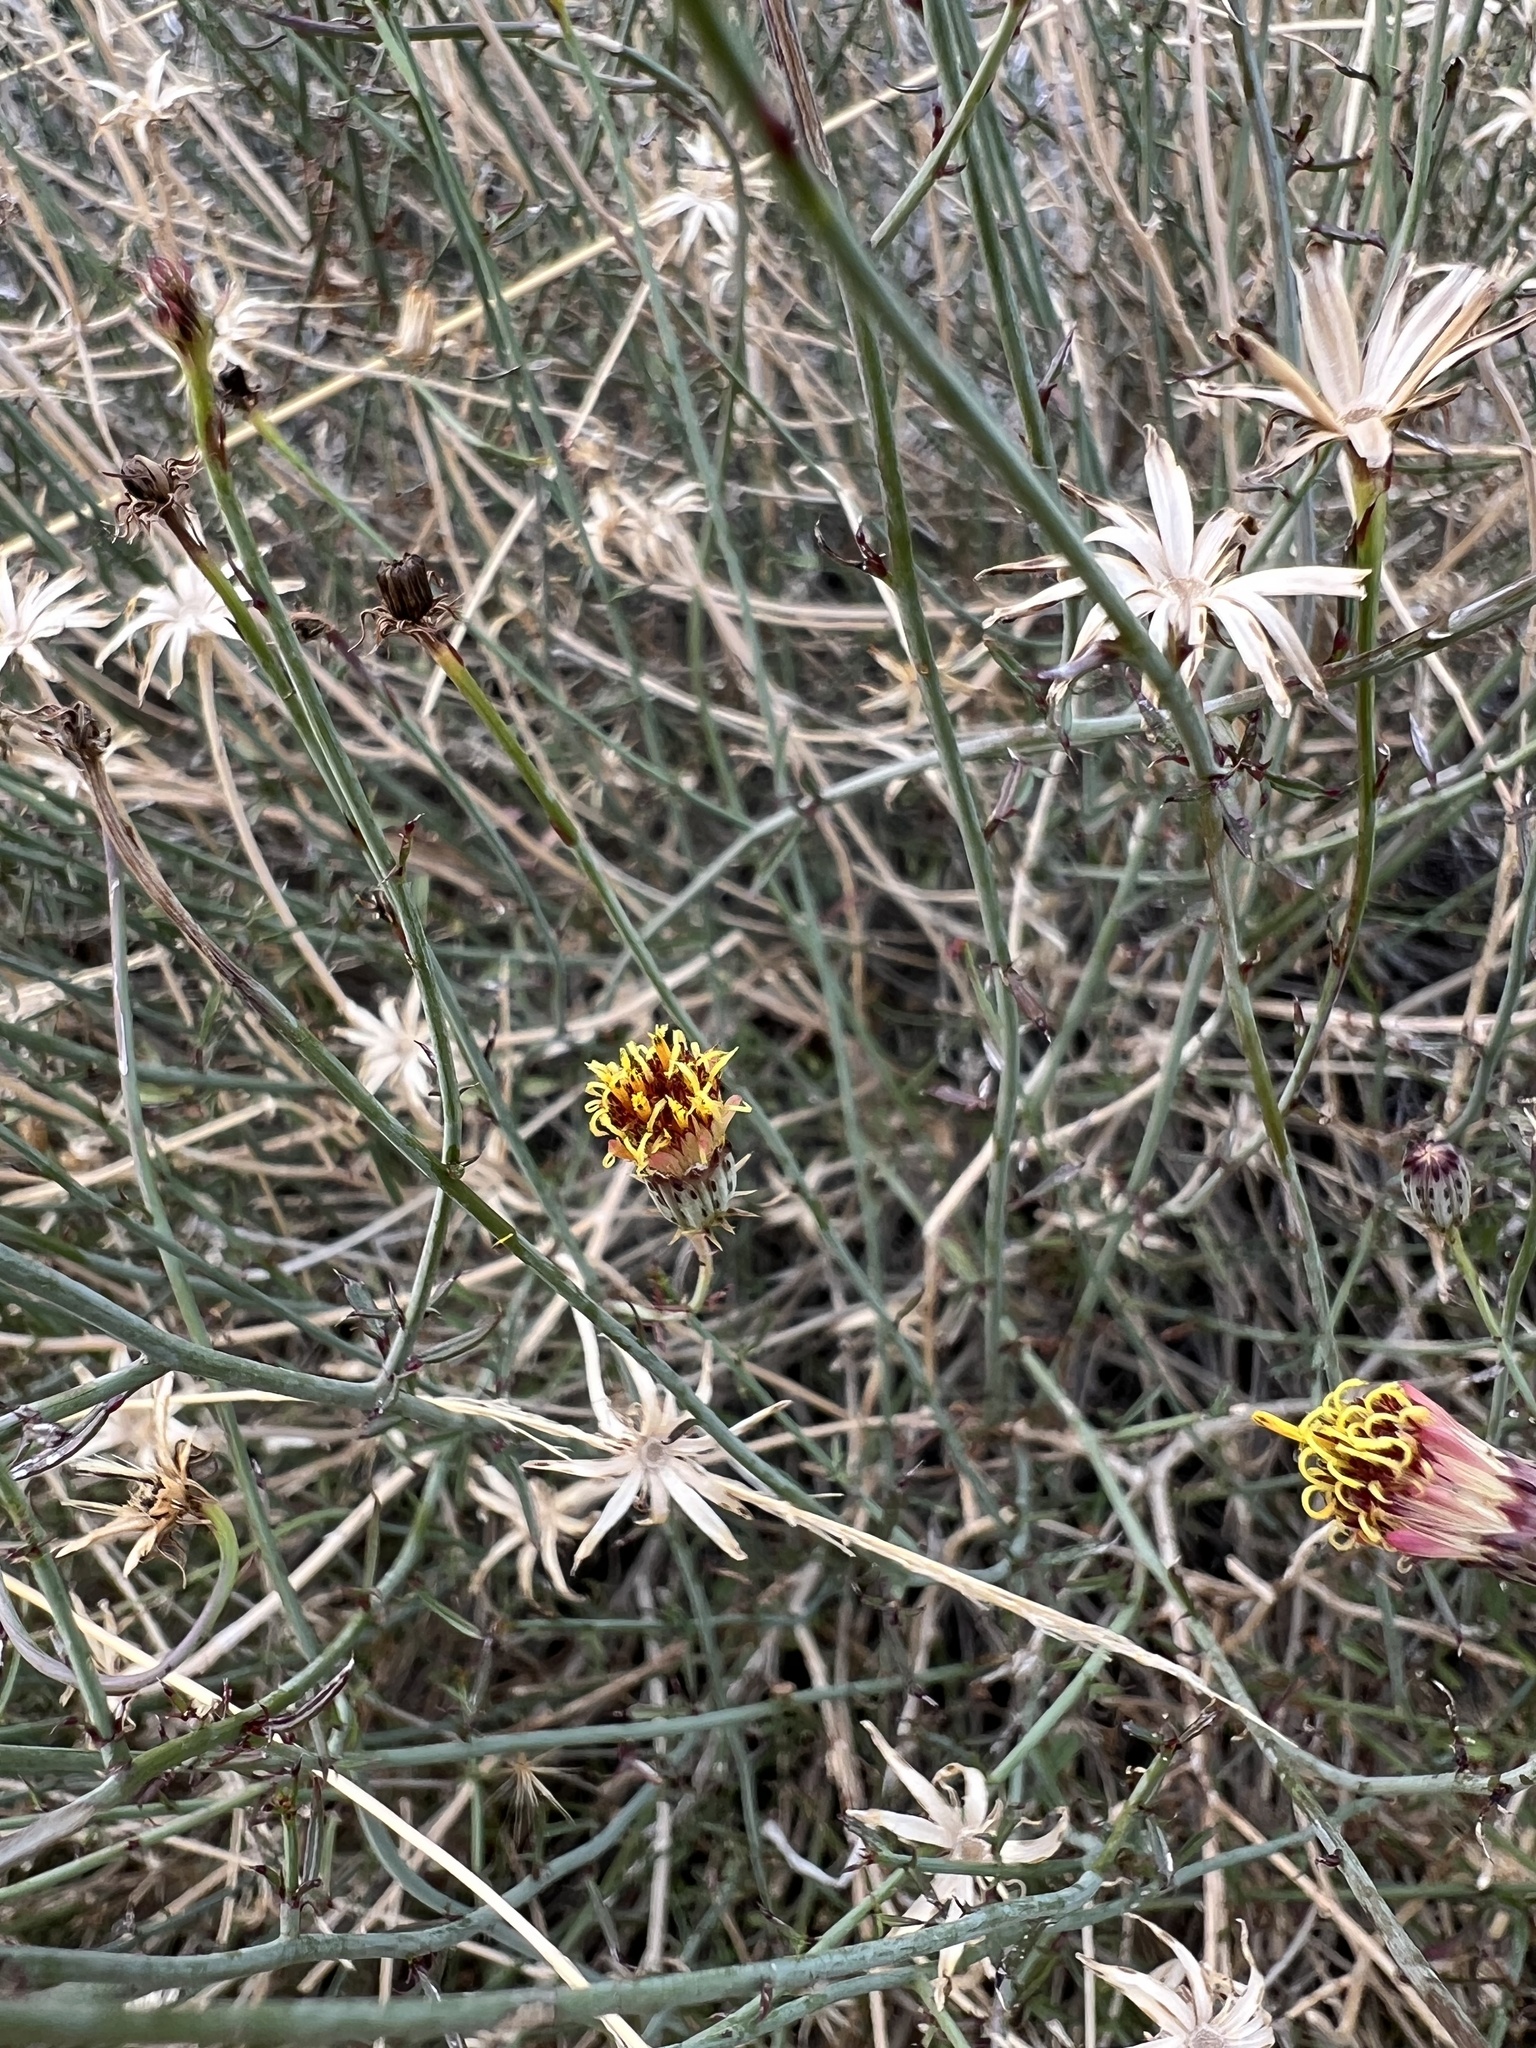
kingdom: Plantae
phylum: Tracheophyta
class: Magnoliopsida
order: Asterales
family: Asteraceae
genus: Adenophyllum
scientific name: Adenophyllum porophylloides
